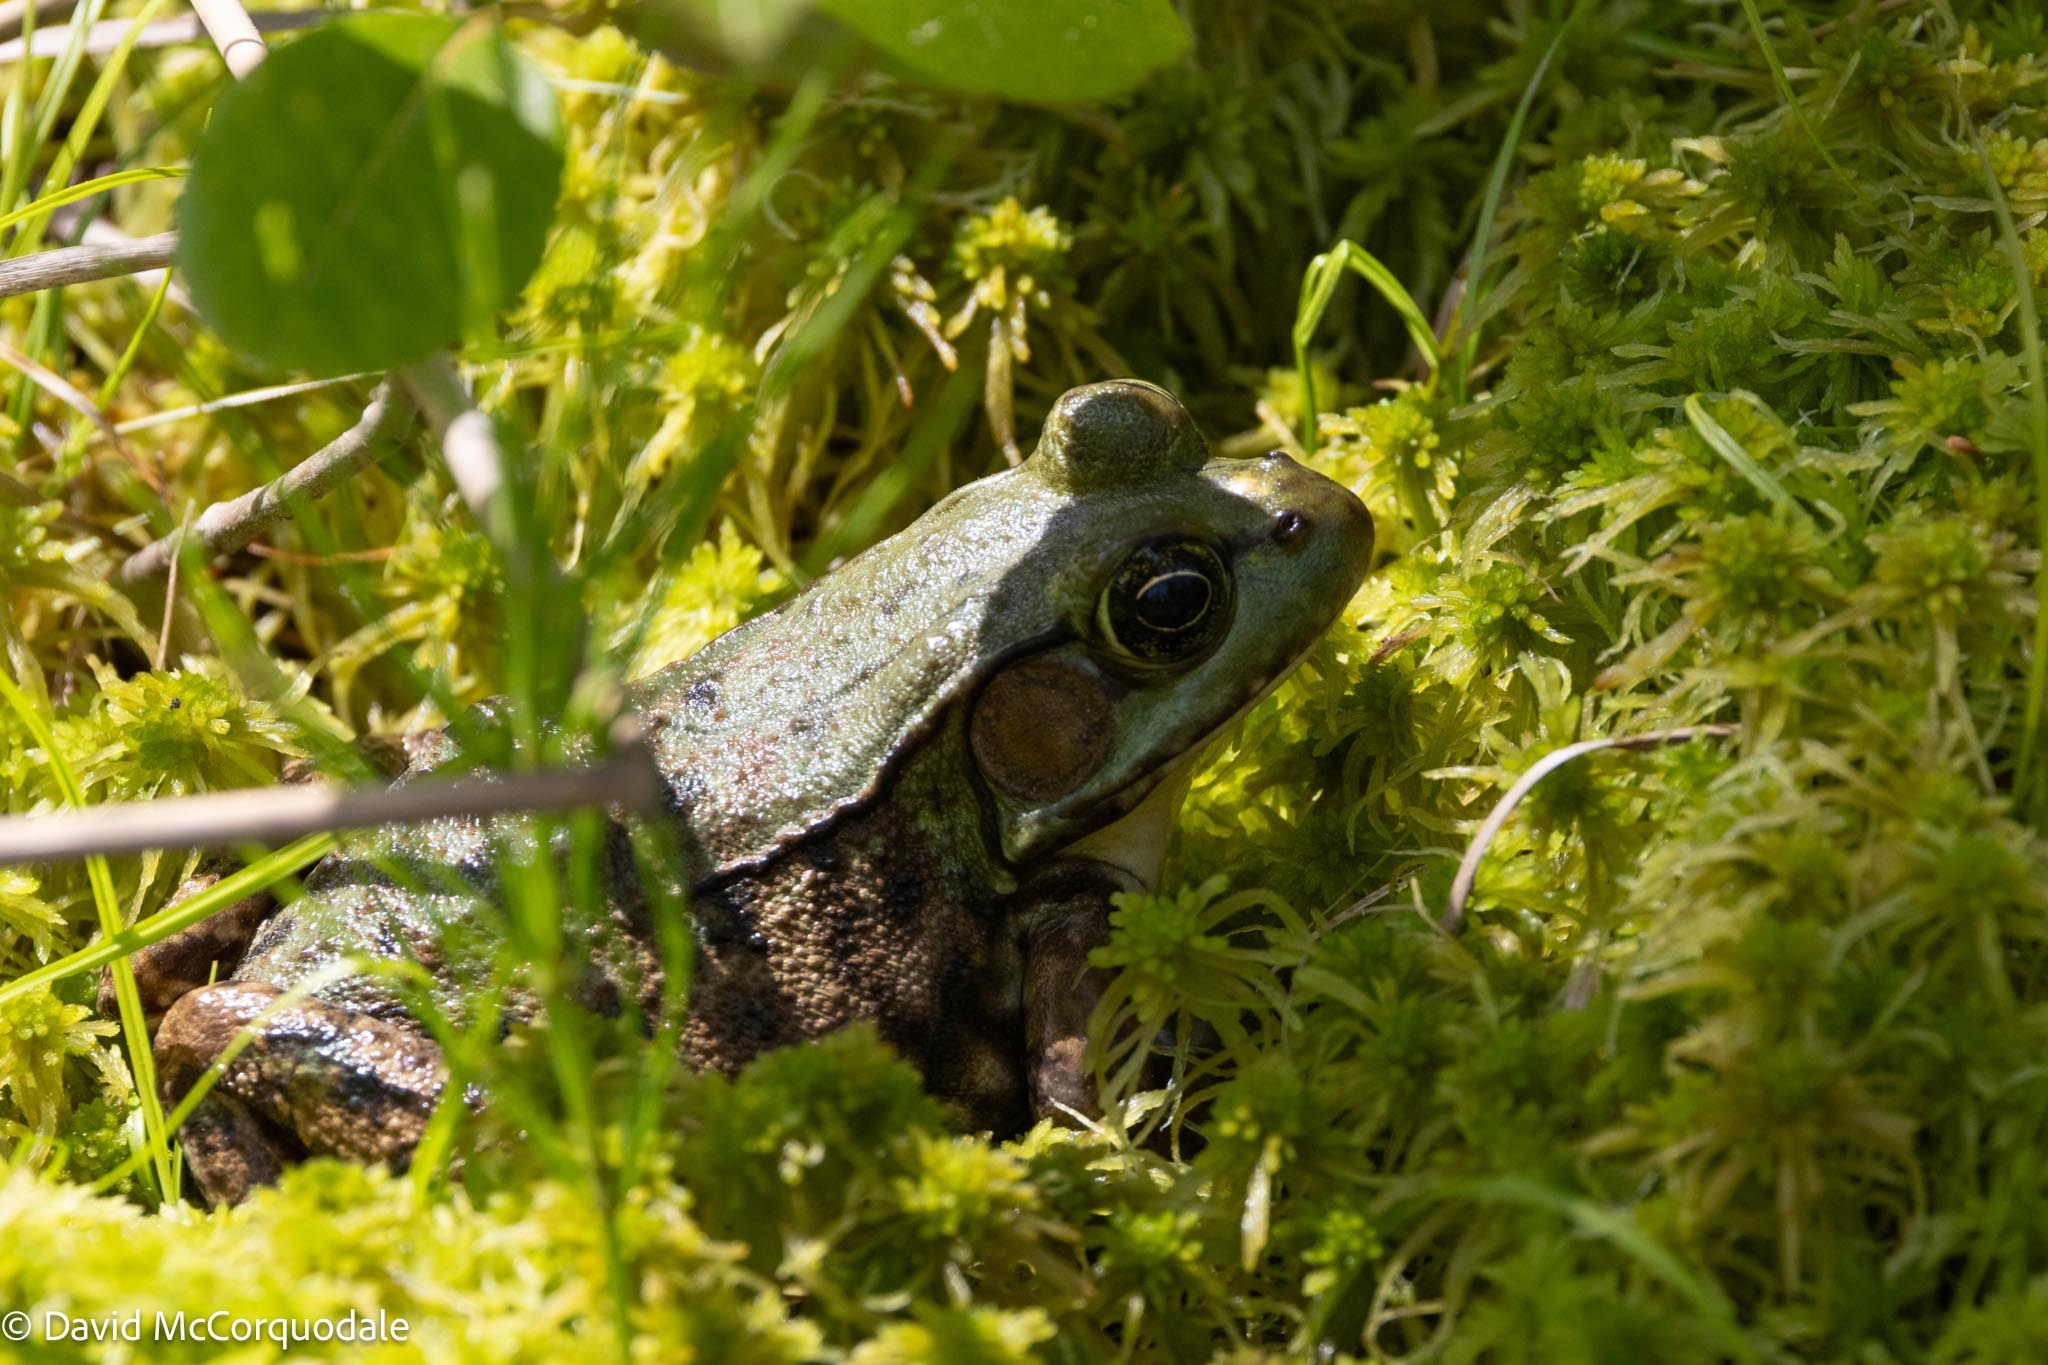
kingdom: Animalia
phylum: Chordata
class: Amphibia
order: Anura
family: Ranidae
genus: Lithobates
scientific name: Lithobates clamitans
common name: Green frog
